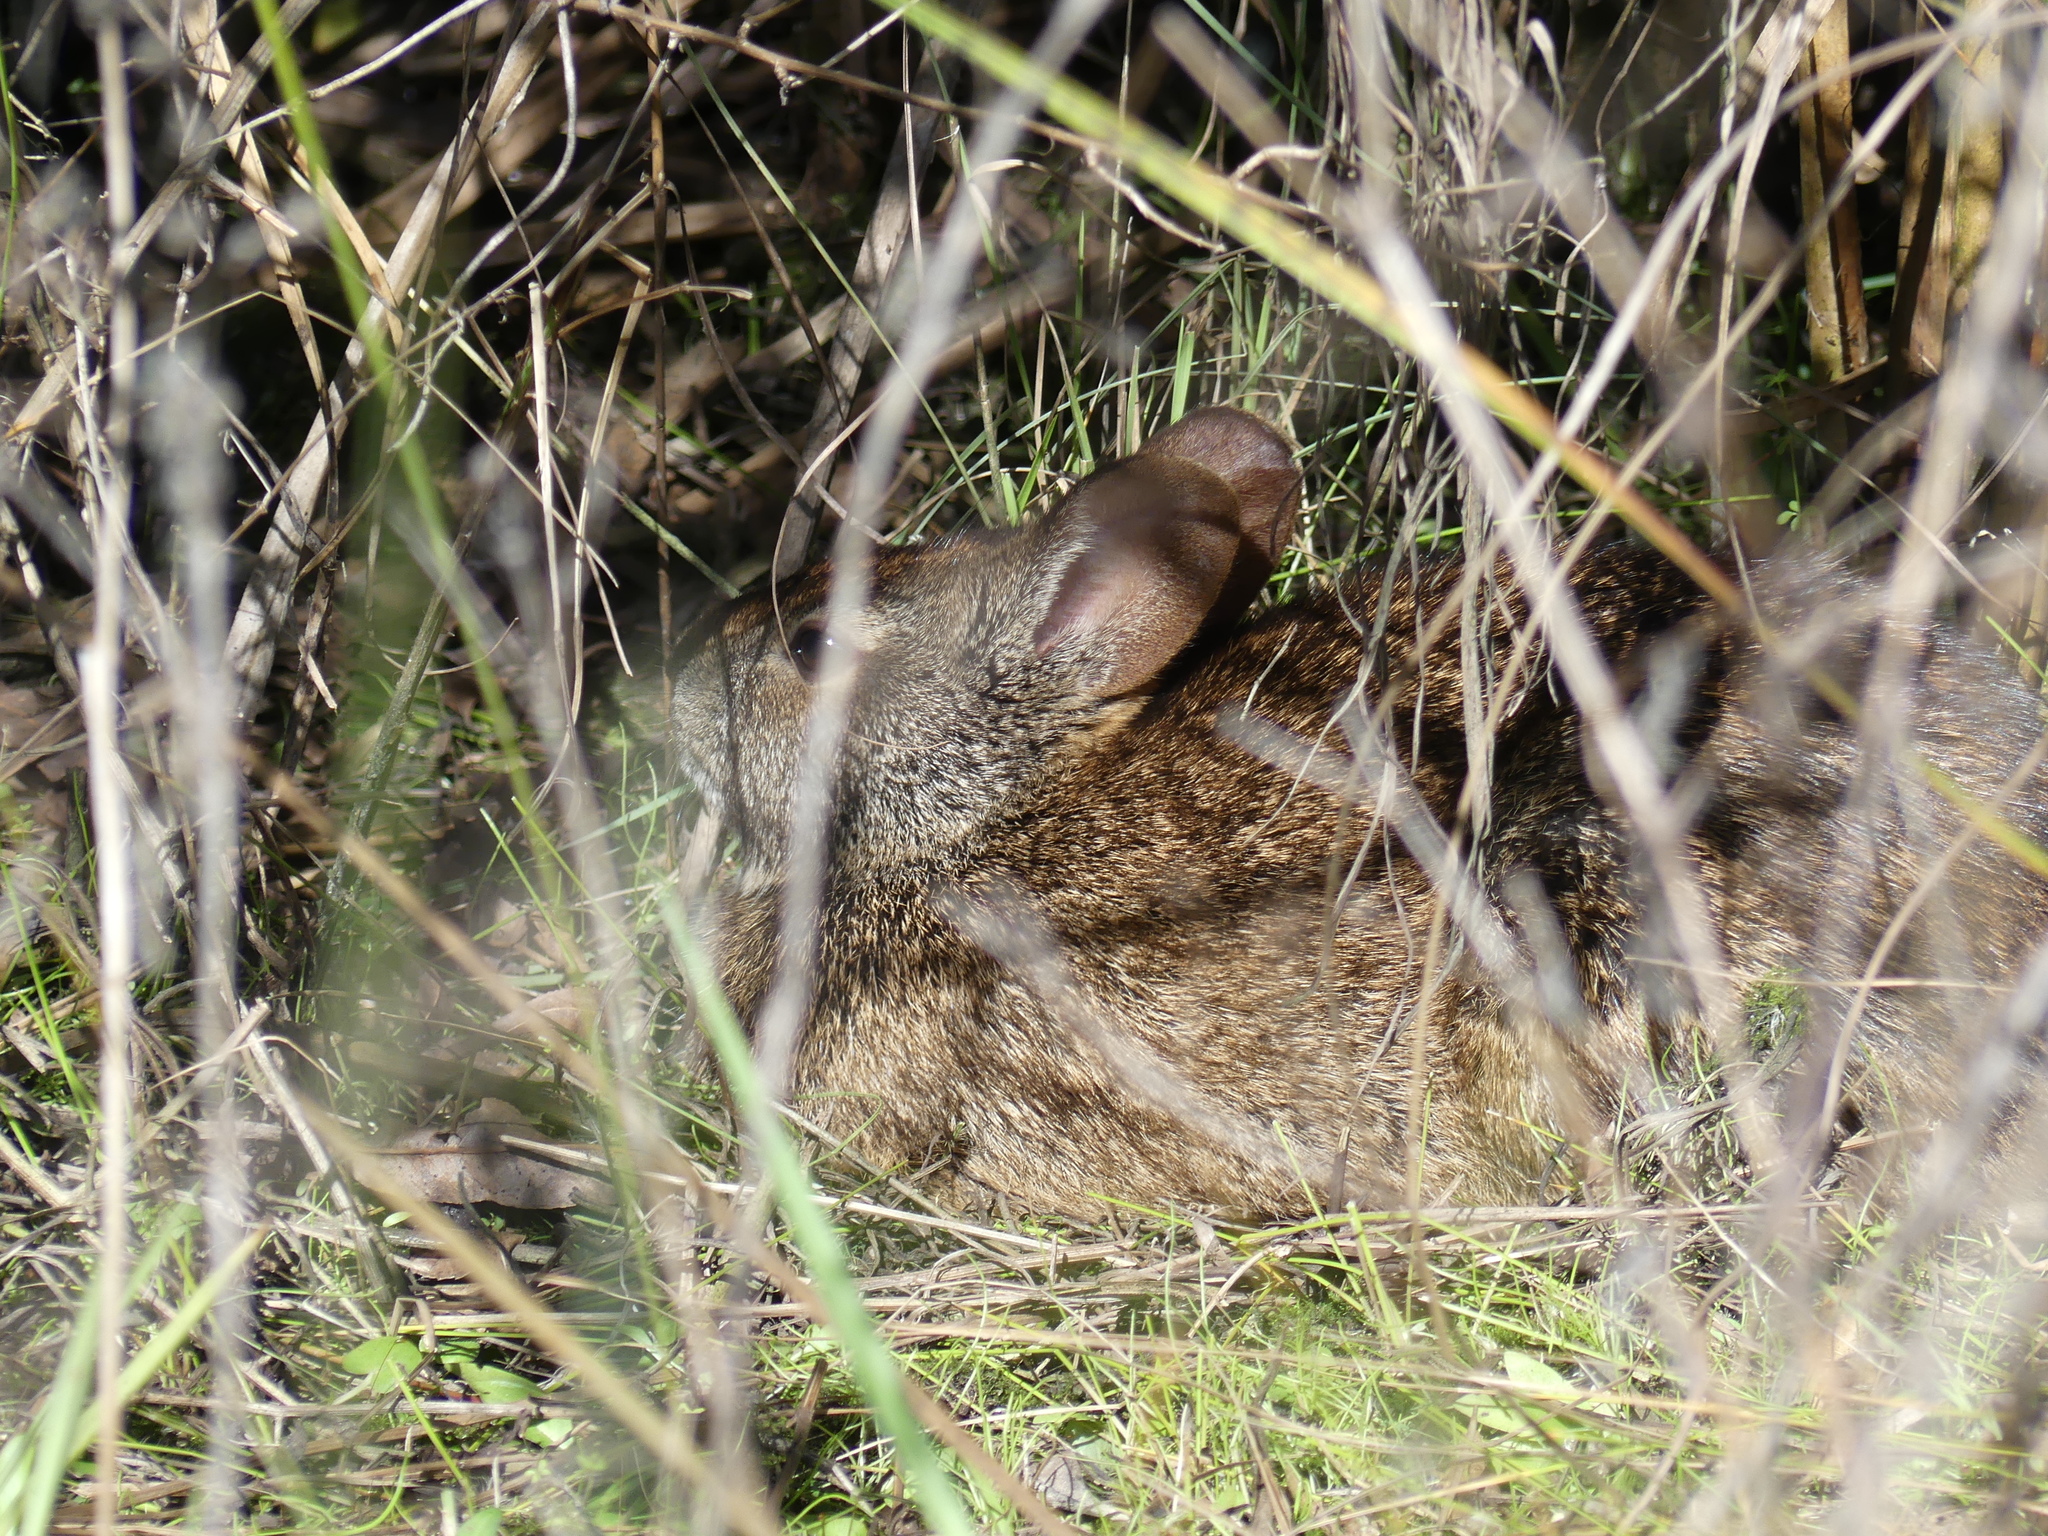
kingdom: Animalia
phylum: Chordata
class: Mammalia
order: Lagomorpha
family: Leporidae
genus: Sylvilagus
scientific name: Sylvilagus palustris
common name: Marsh rabbit
